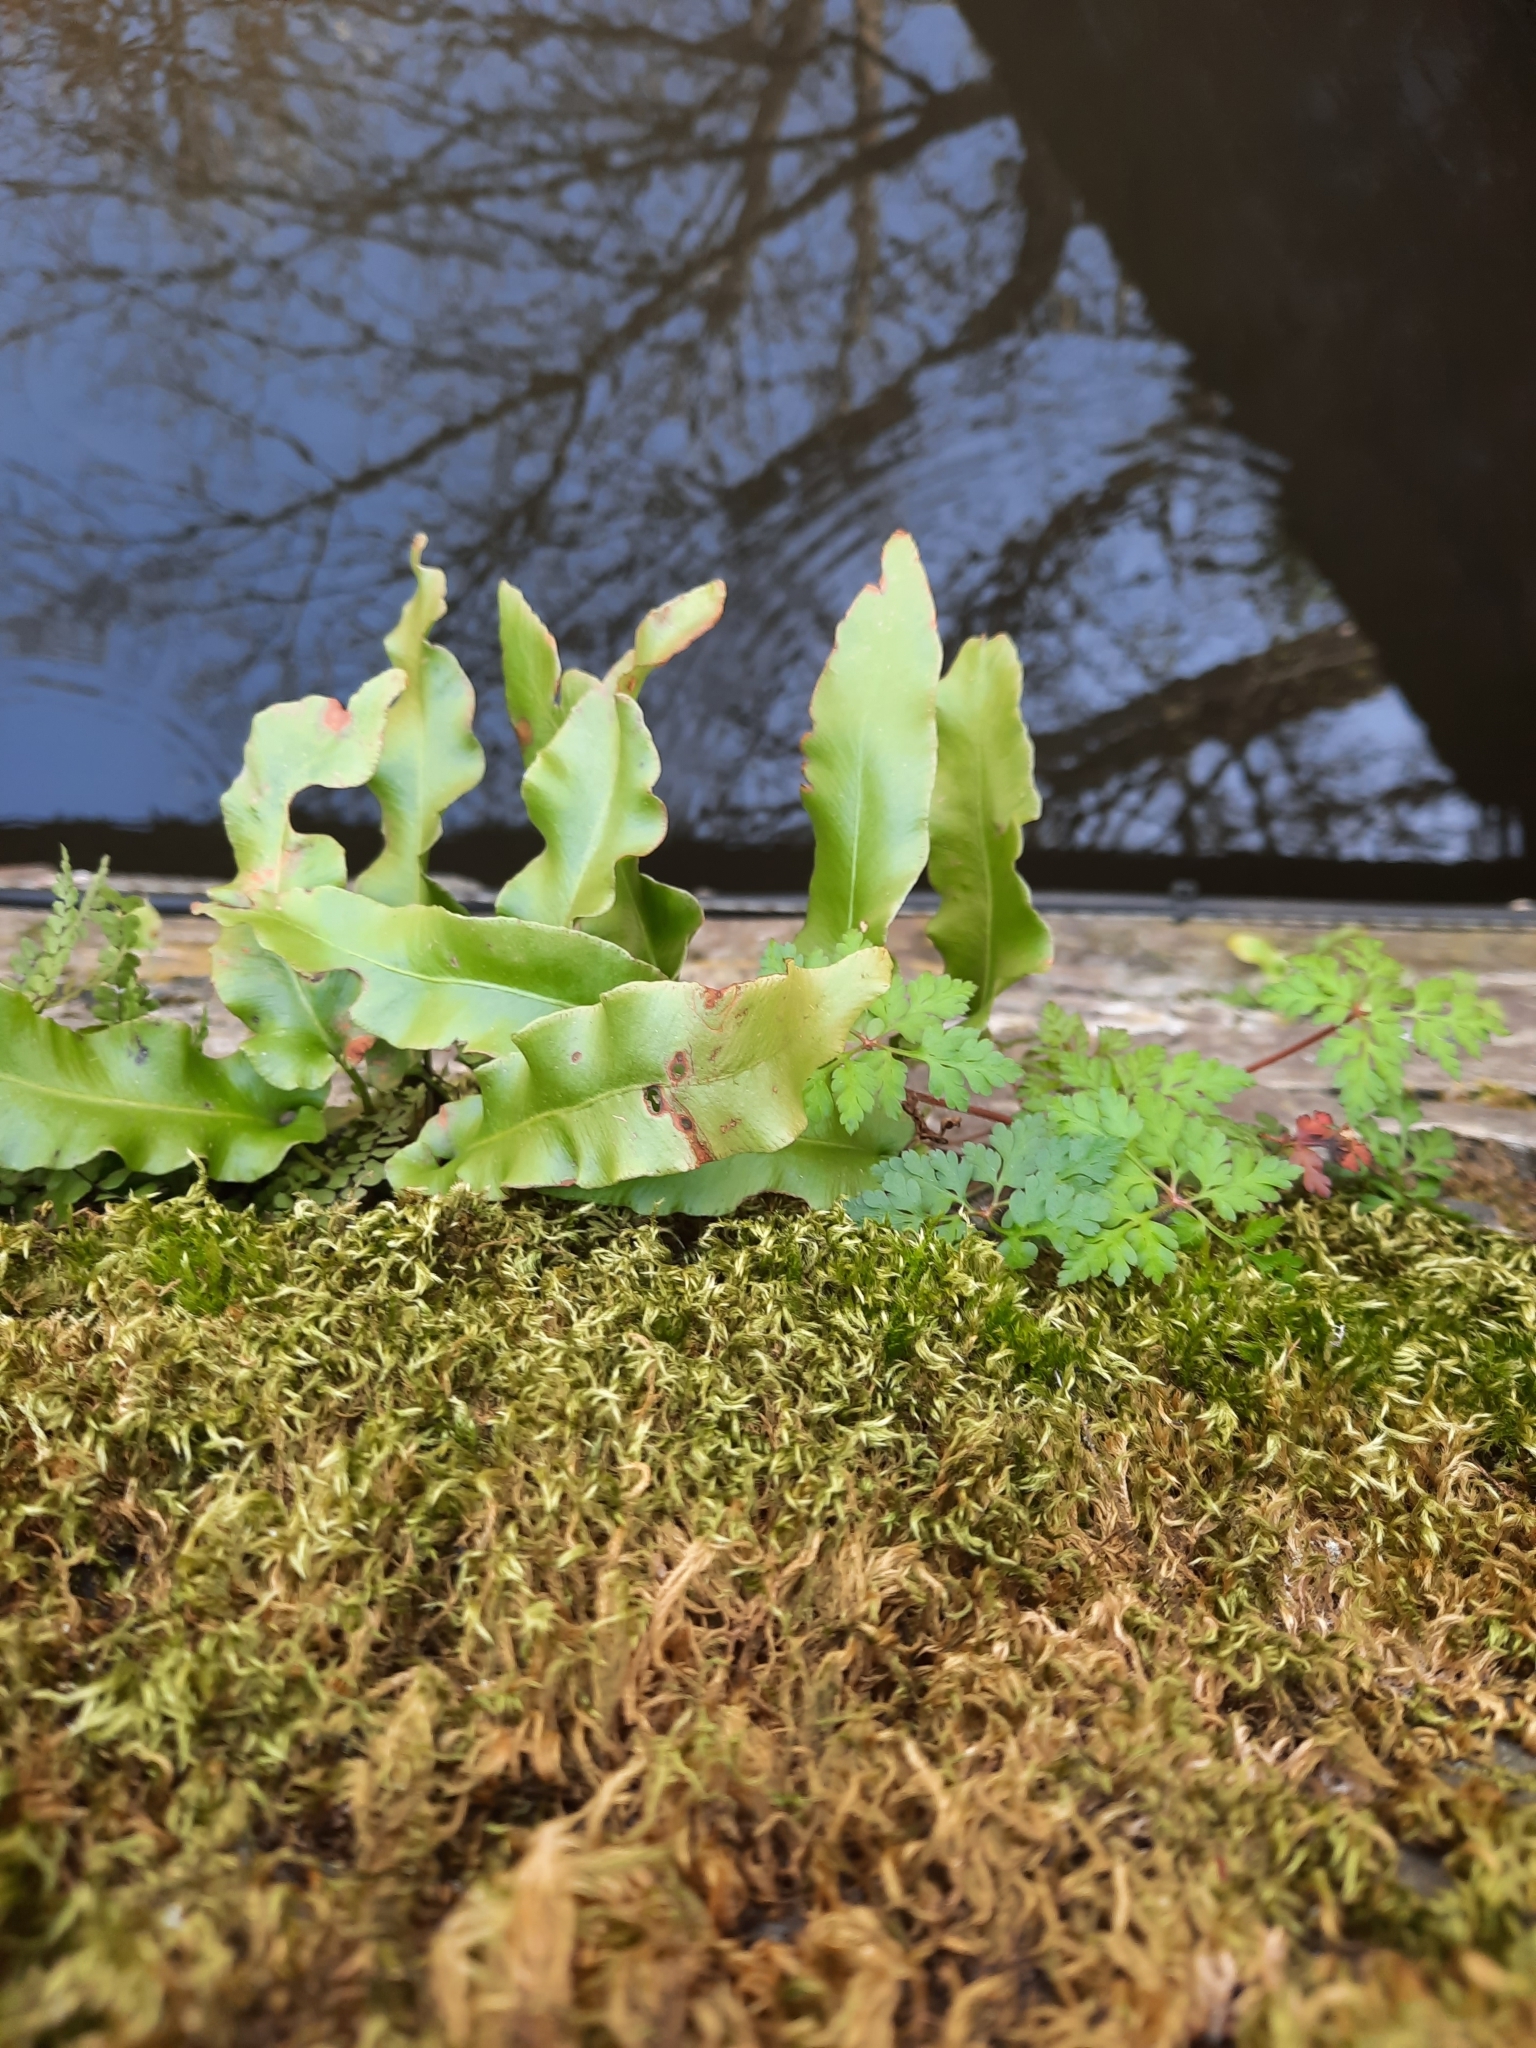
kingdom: Plantae
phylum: Tracheophyta
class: Polypodiopsida
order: Polypodiales
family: Aspleniaceae
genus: Asplenium
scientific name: Asplenium scolopendrium
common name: Hart's-tongue fern
